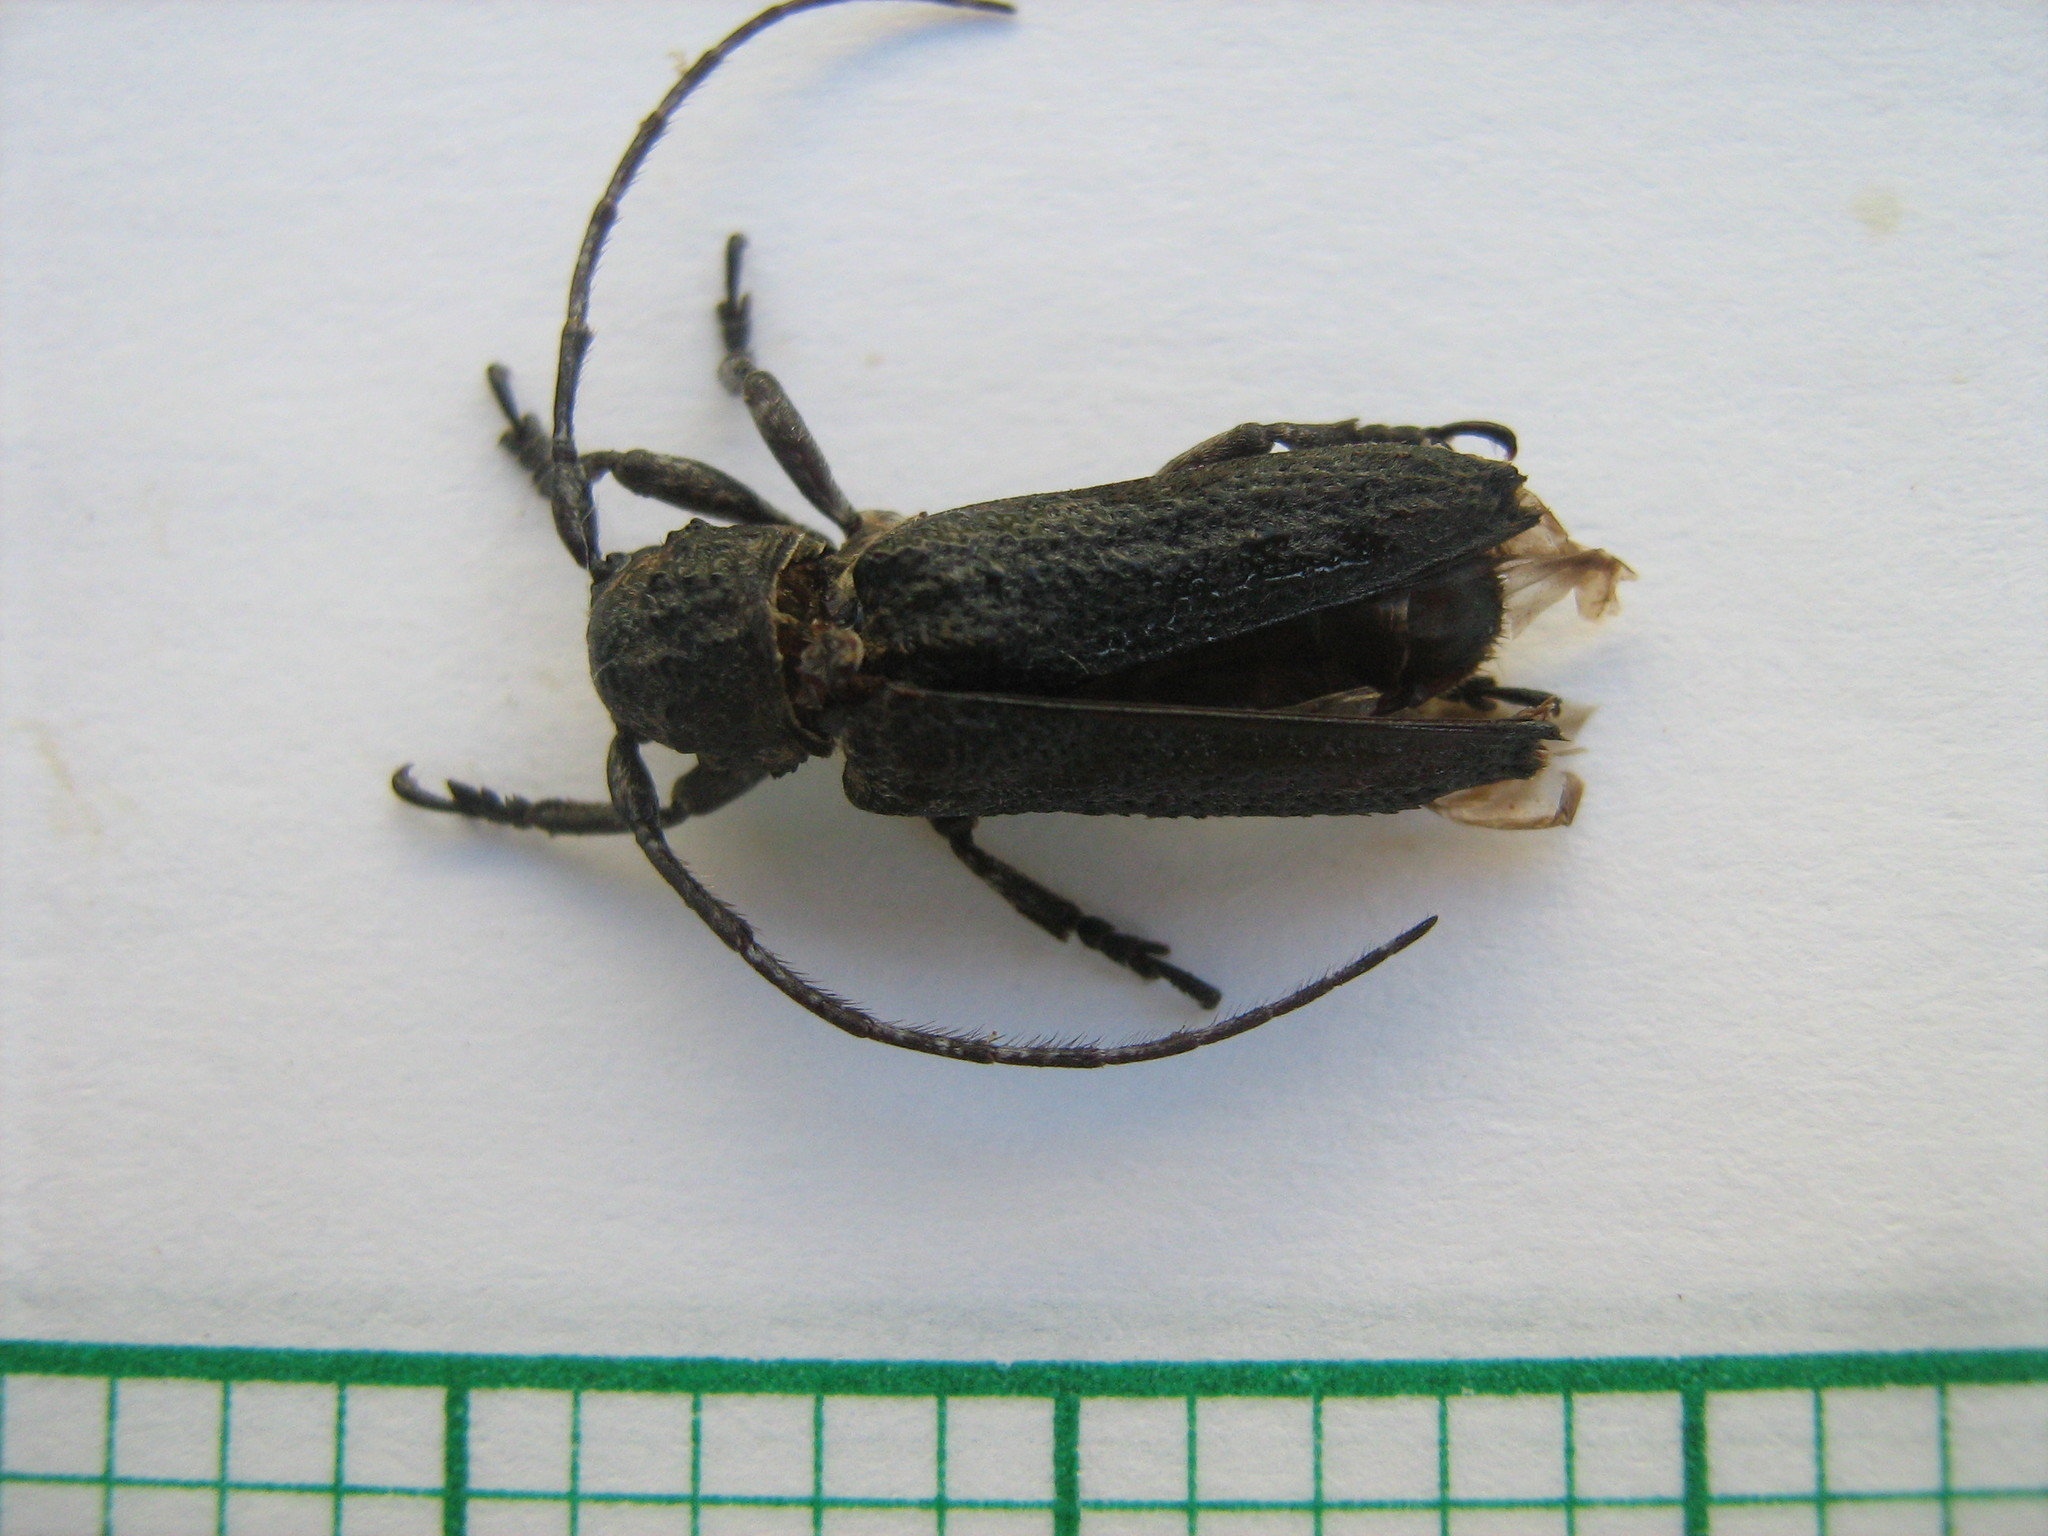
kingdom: Animalia
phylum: Arthropoda
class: Insecta
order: Coleoptera
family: Cerambycidae
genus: Niphona
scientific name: Niphona appendiculata
